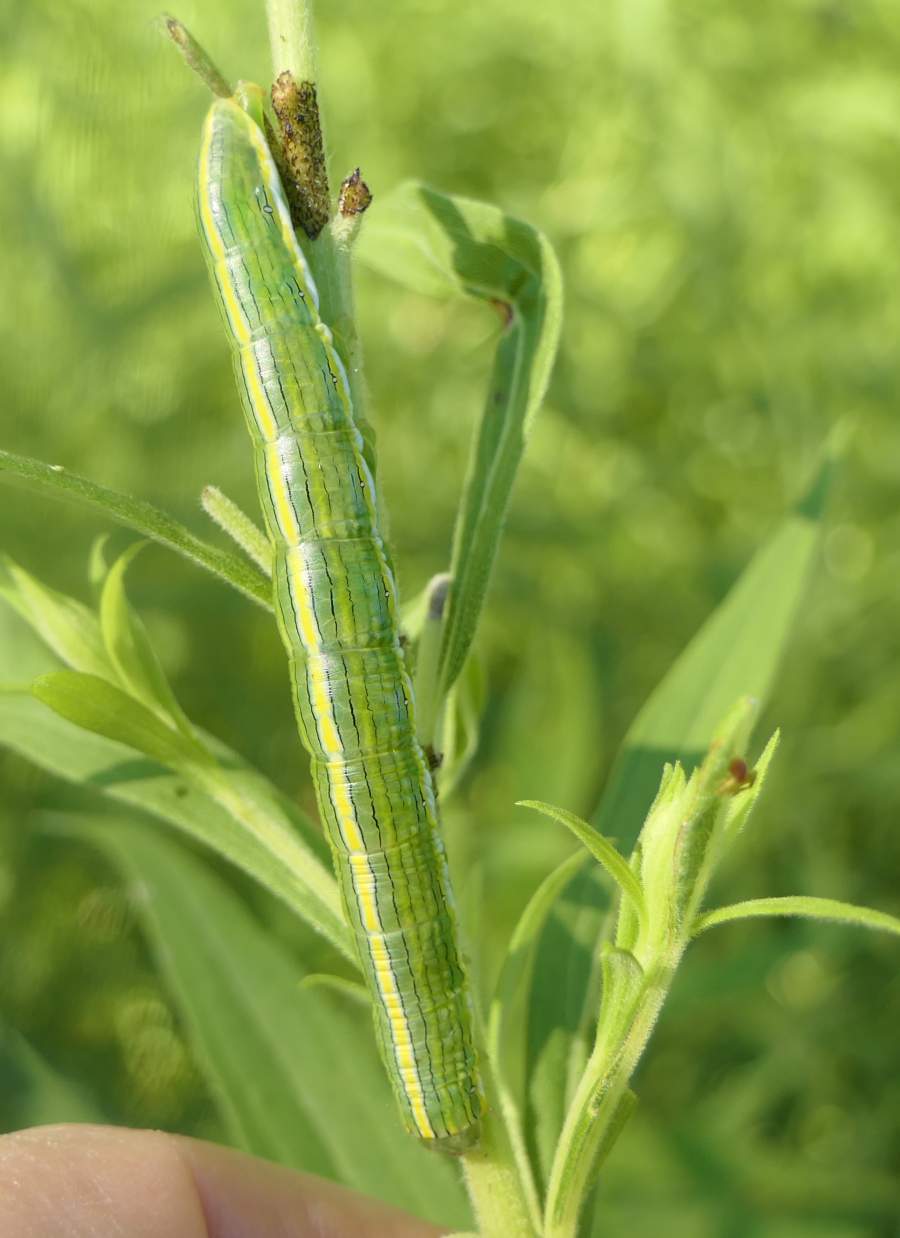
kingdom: Animalia
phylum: Arthropoda
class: Insecta
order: Lepidoptera
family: Noctuidae
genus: Cucullia
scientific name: Cucullia asteroides
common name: Asteroid moth
